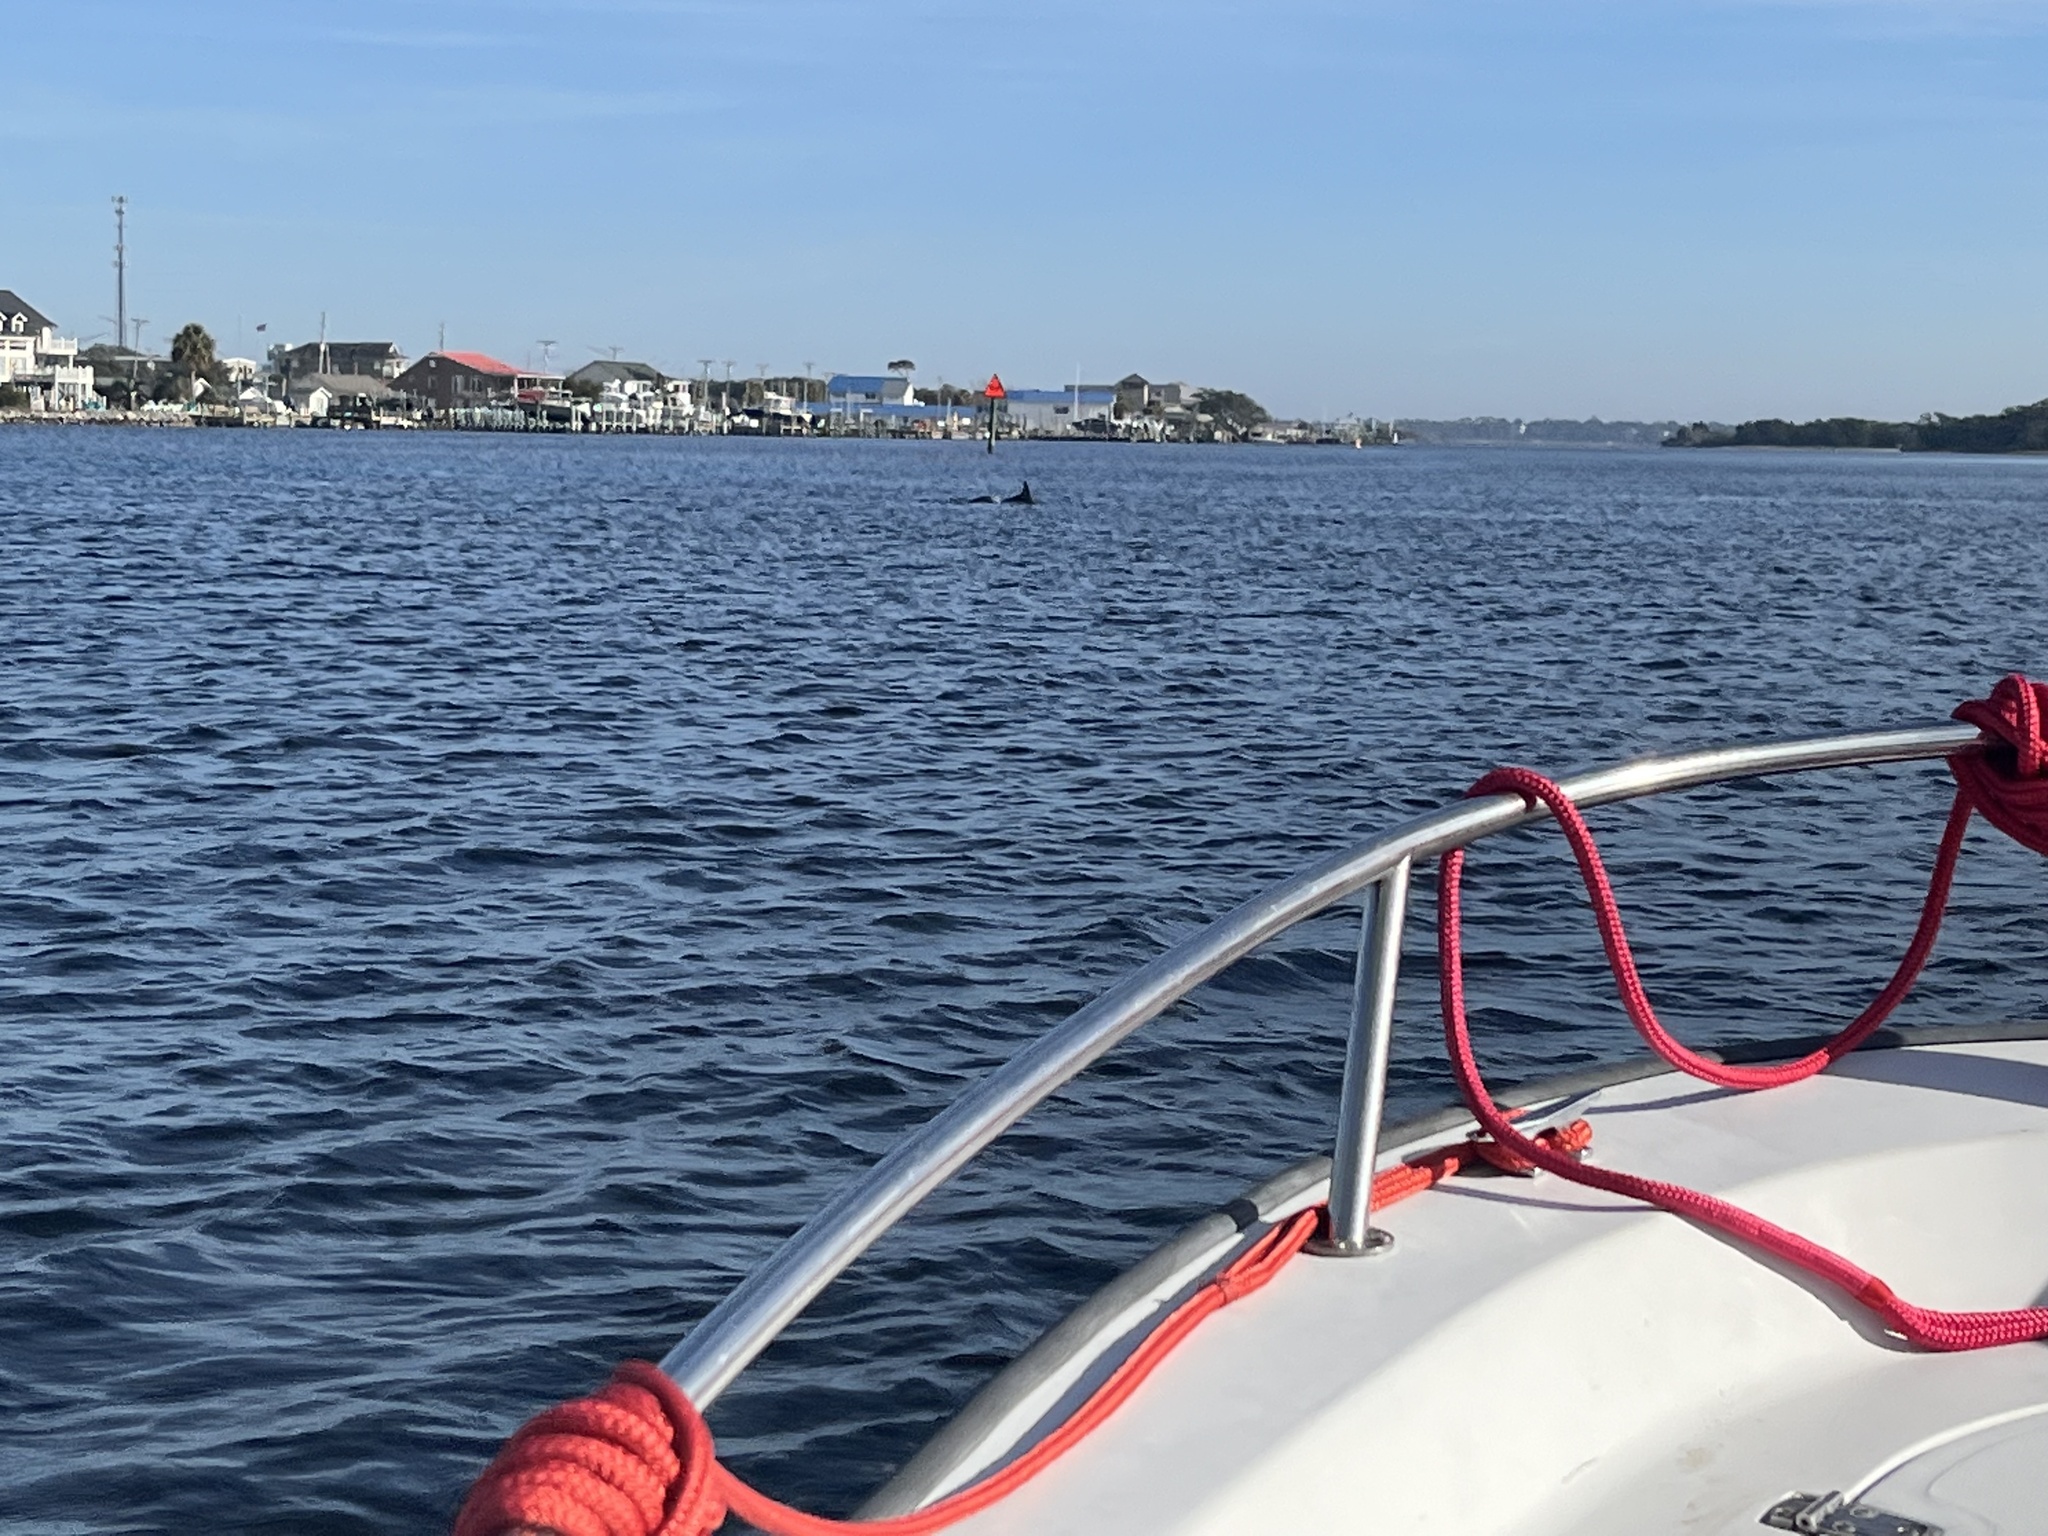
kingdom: Animalia
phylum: Chordata
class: Mammalia
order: Cetacea
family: Delphinidae
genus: Tursiops
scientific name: Tursiops truncatus
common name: Bottlenose dolphin
